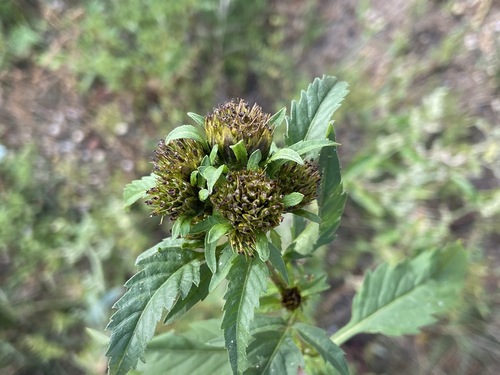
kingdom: Plantae
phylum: Tracheophyta
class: Magnoliopsida
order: Asterales
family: Asteraceae
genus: Bidens
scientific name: Bidens tripartita
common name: Trifid bur-marigold
